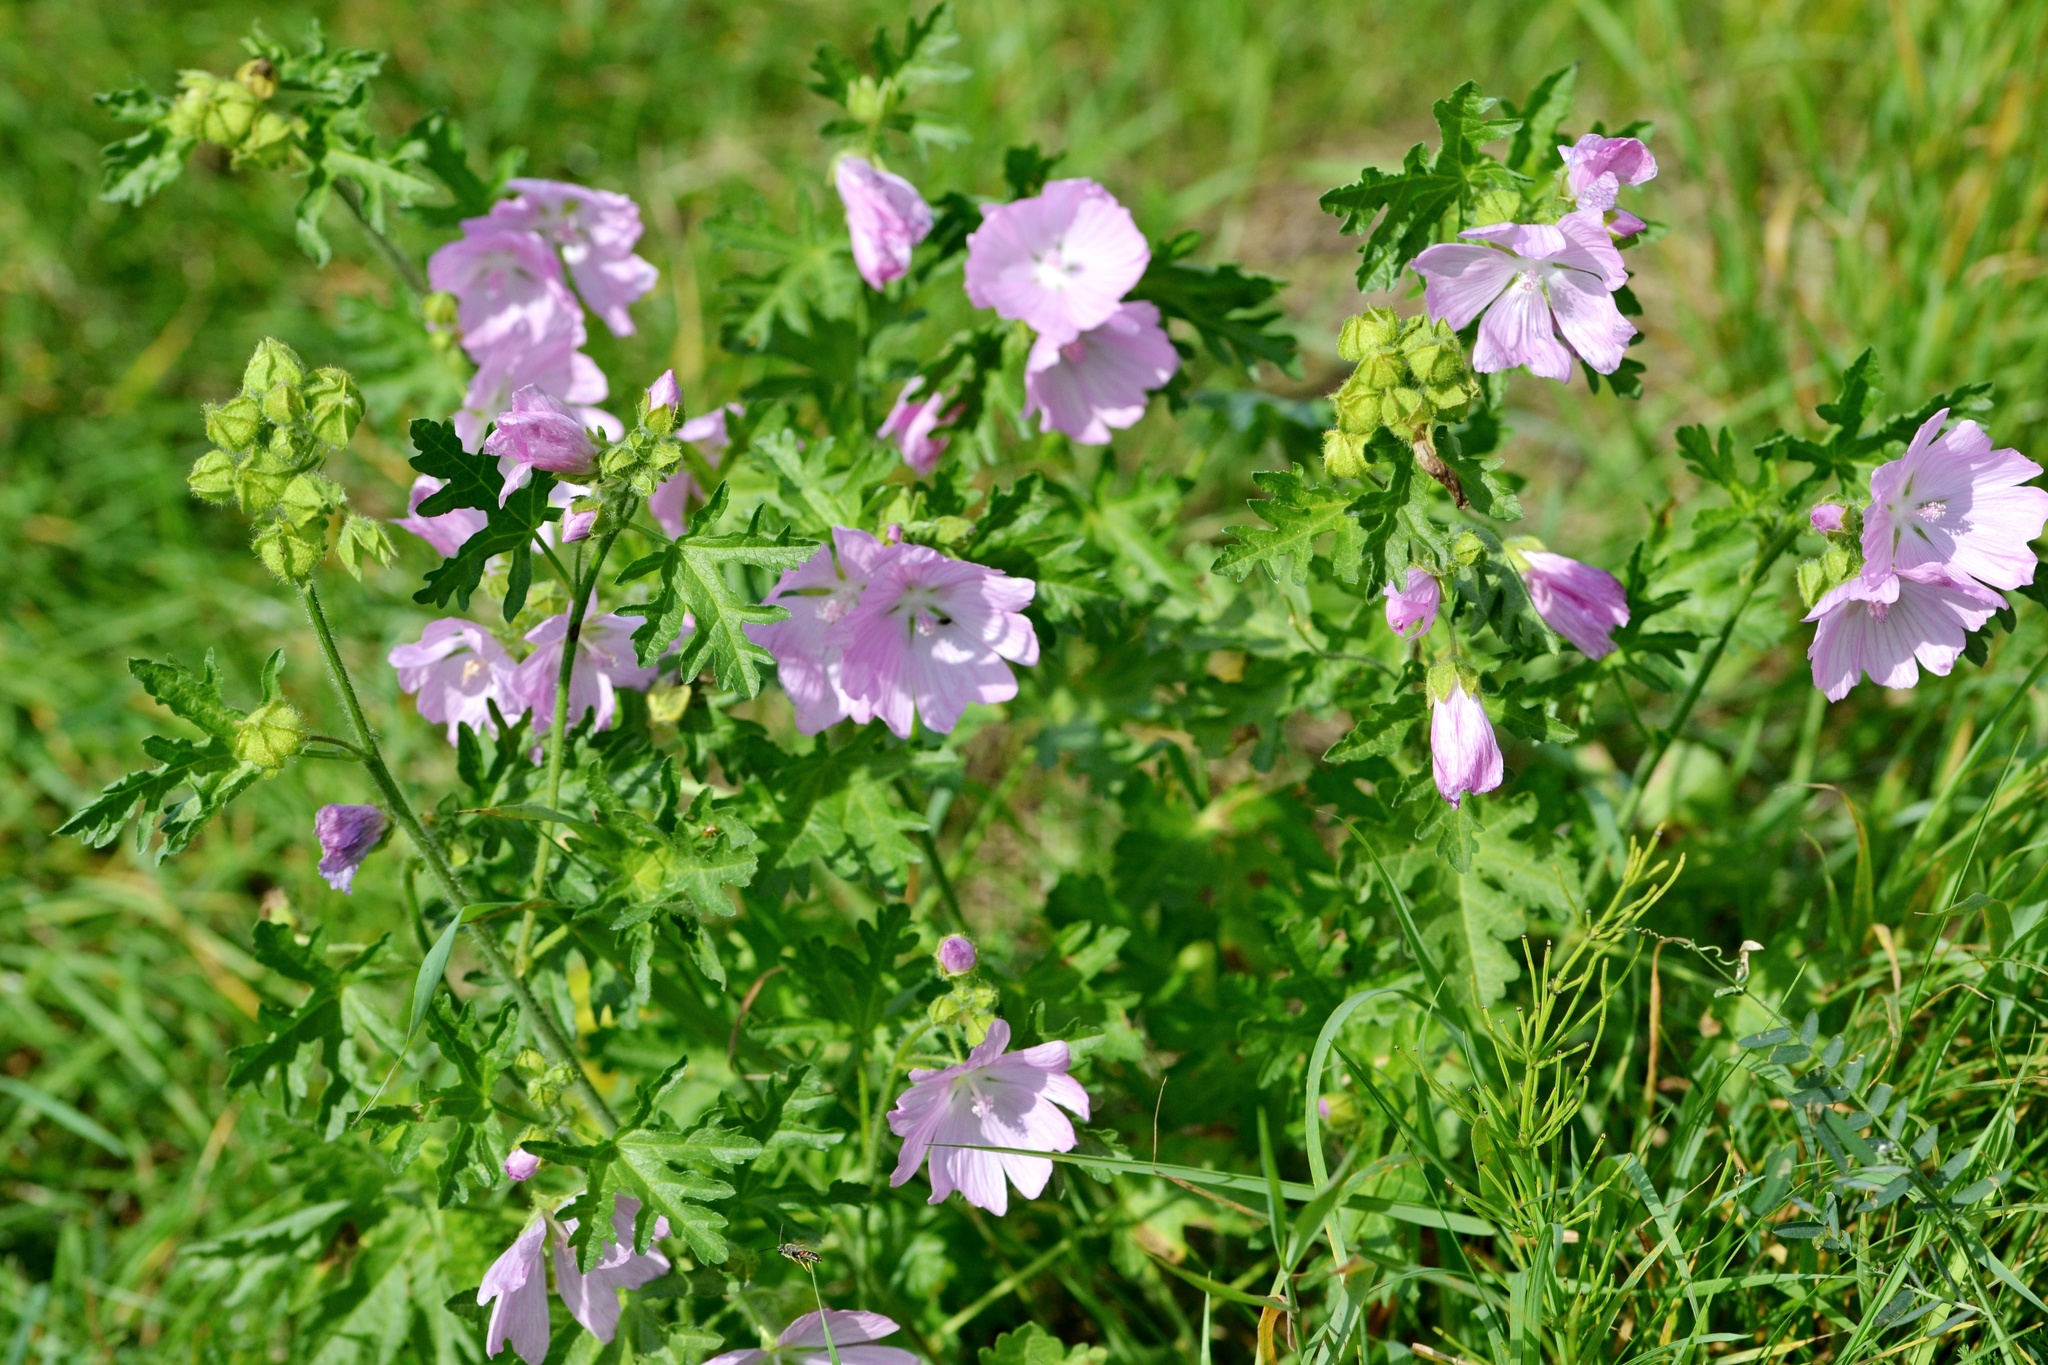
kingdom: Plantae
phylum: Tracheophyta
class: Magnoliopsida
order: Malvales
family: Malvaceae
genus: Malva
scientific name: Malva moschata
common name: Musk mallow
